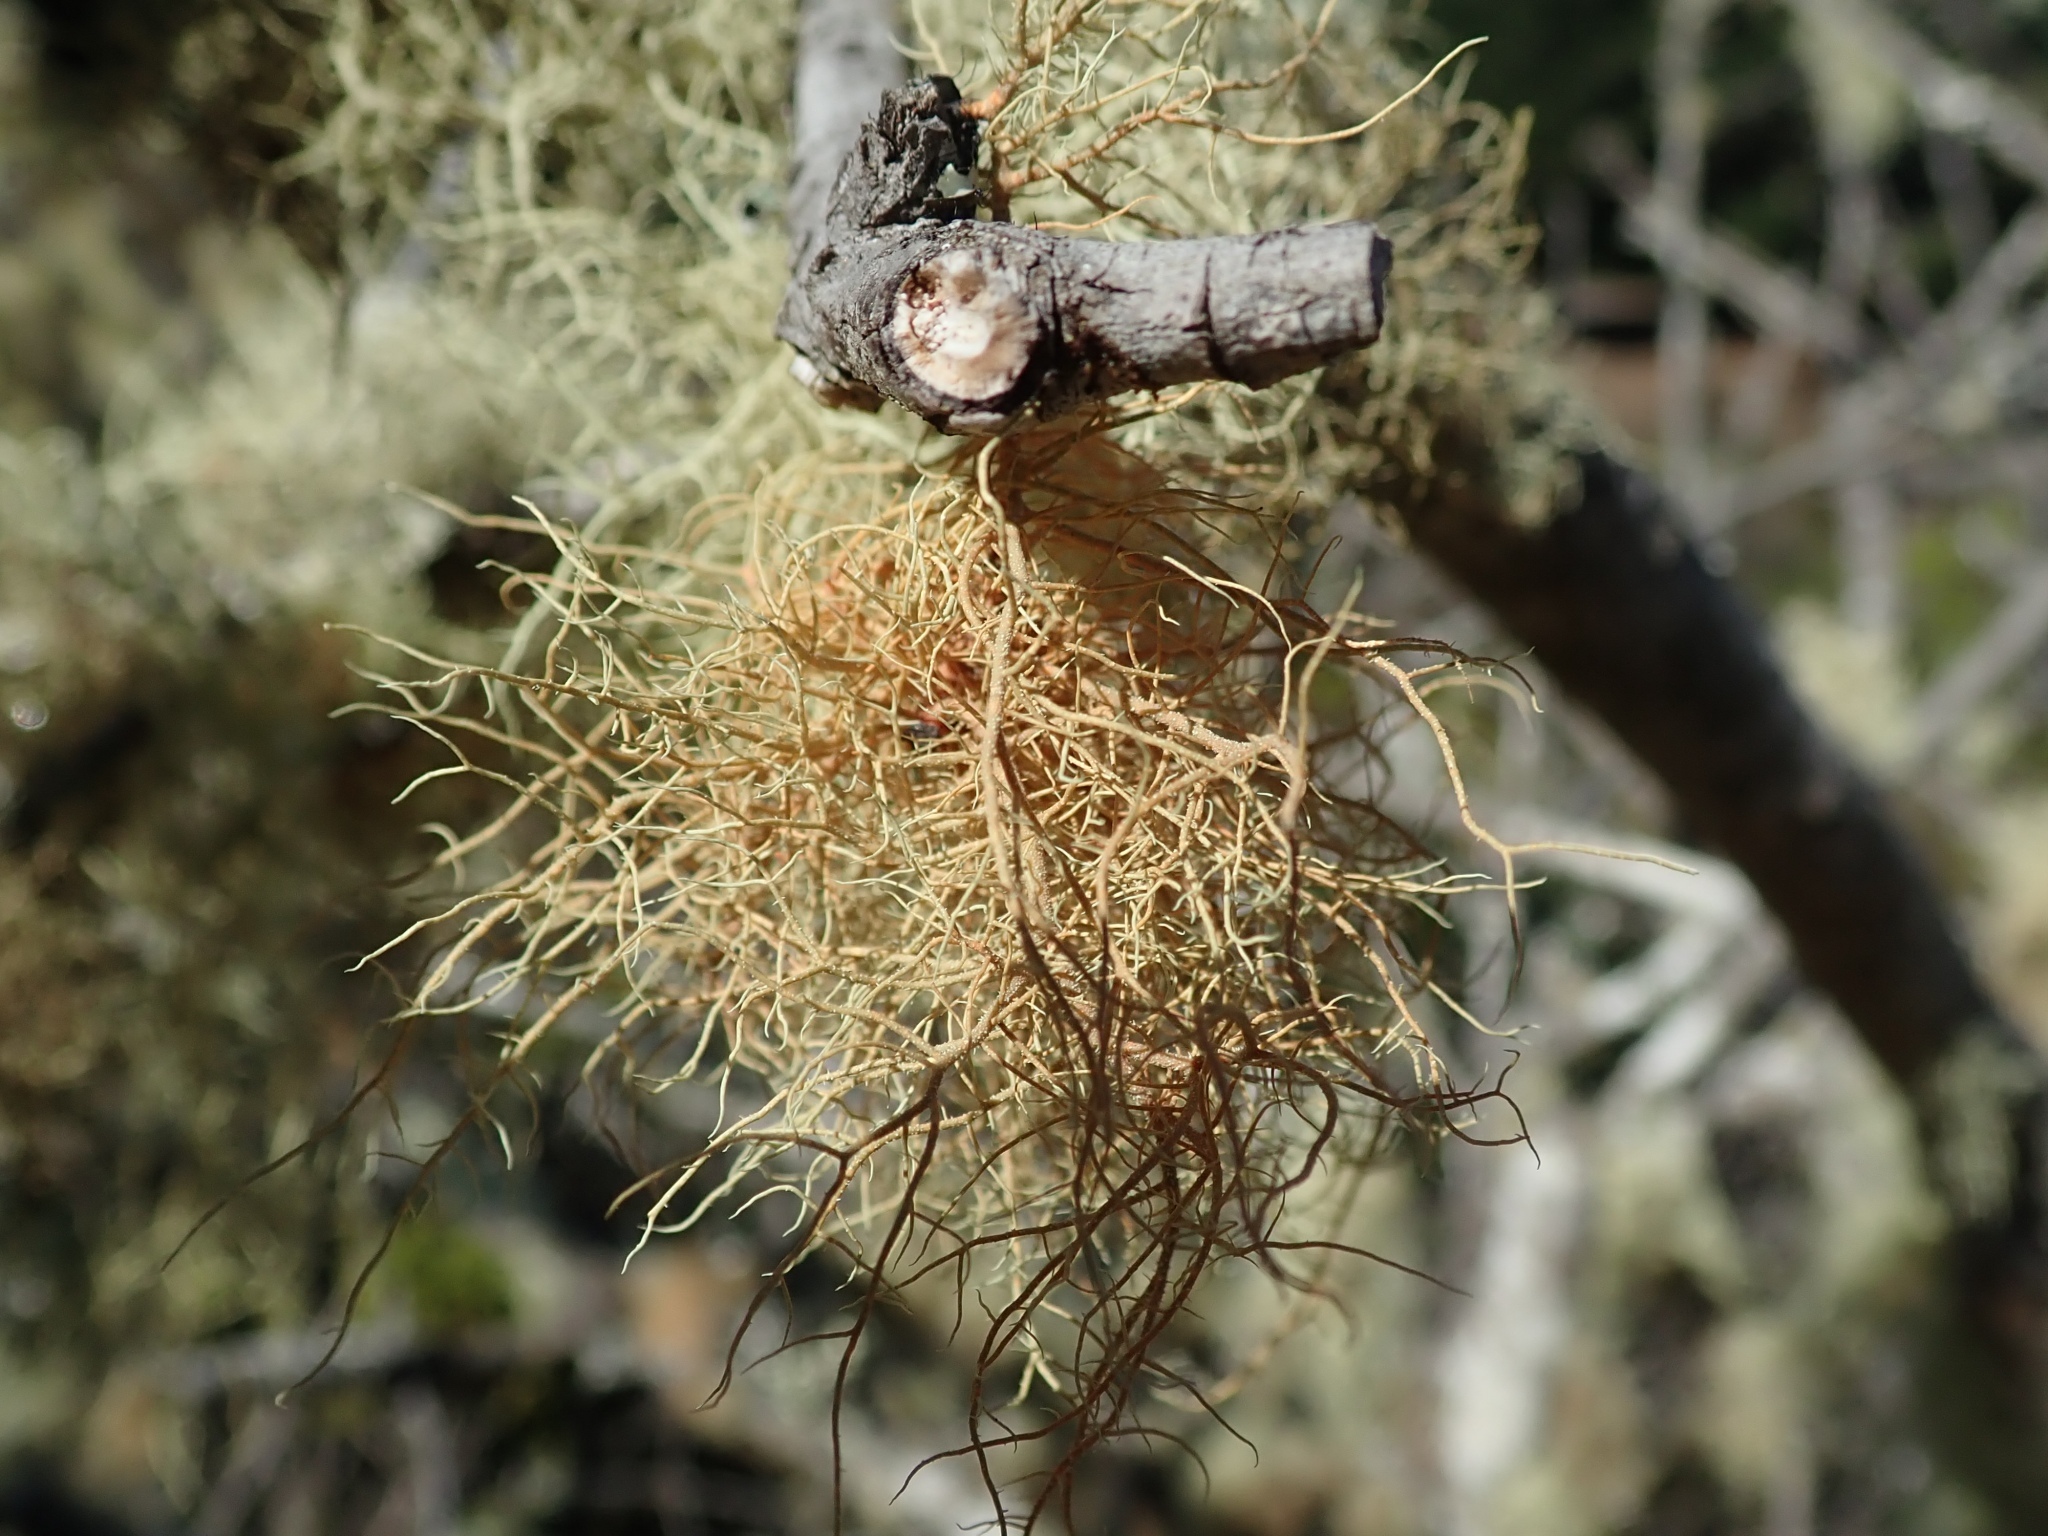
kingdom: Fungi
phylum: Ascomycota
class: Lecanoromycetes
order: Lecanorales
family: Parmeliaceae
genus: Usnea
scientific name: Usnea rubicunda
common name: Red beard lichen
